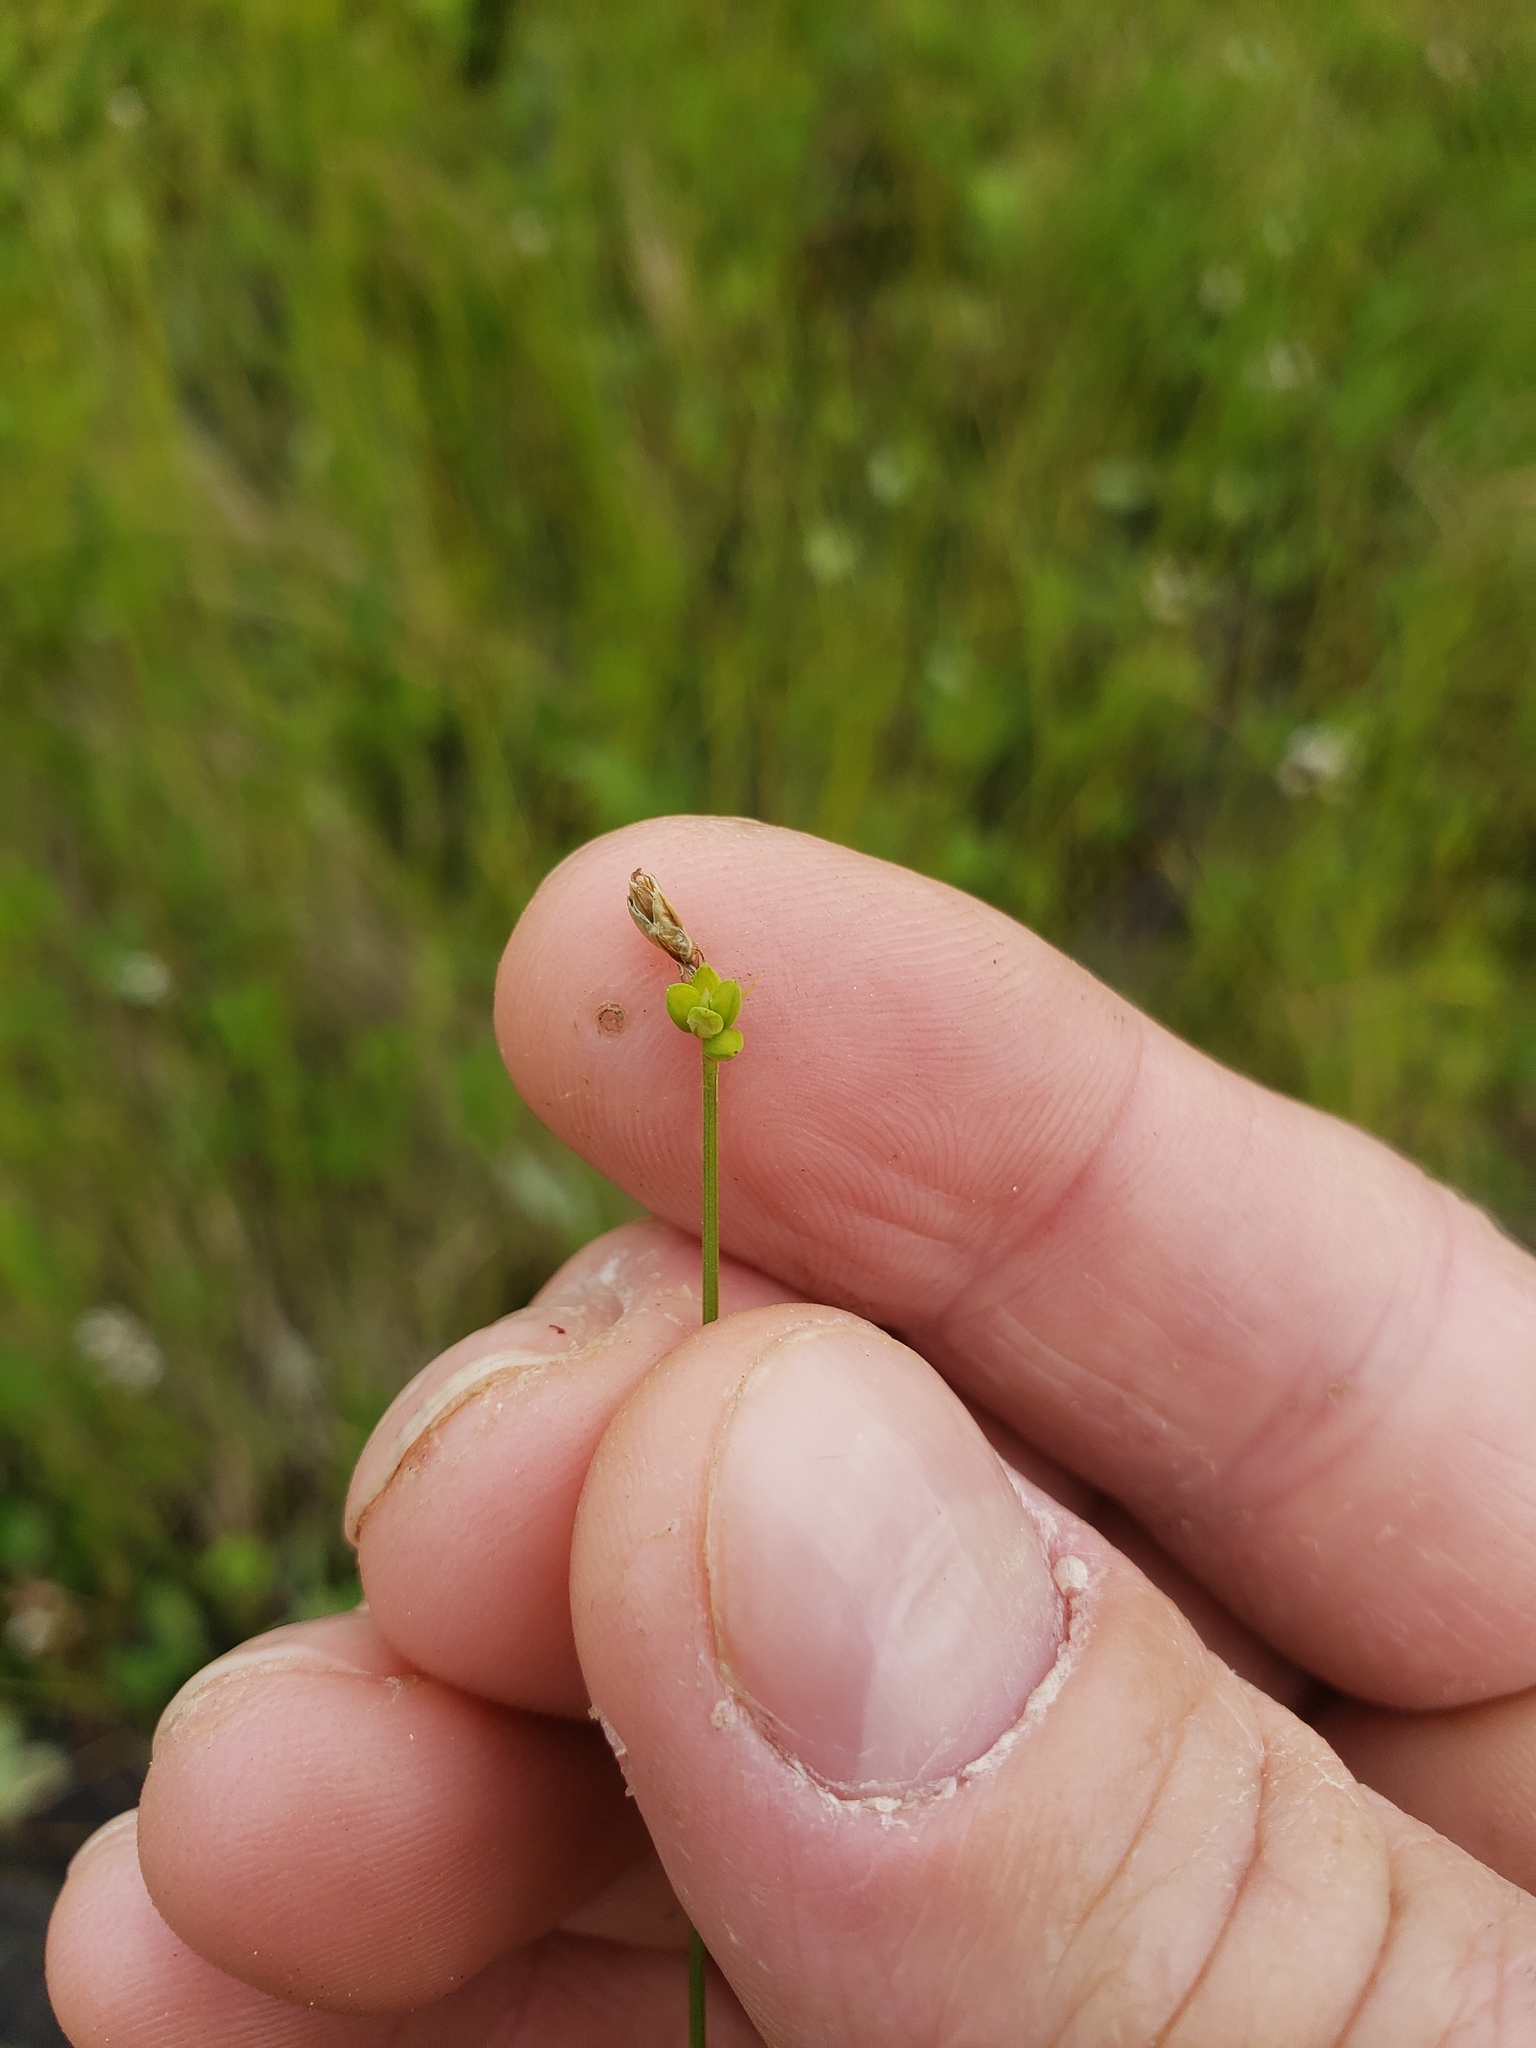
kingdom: Plantae
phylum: Tracheophyta
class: Liliopsida
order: Poales
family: Cyperaceae
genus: Carex
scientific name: Carex tenuiflora
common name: Sparse-flowered sedge
